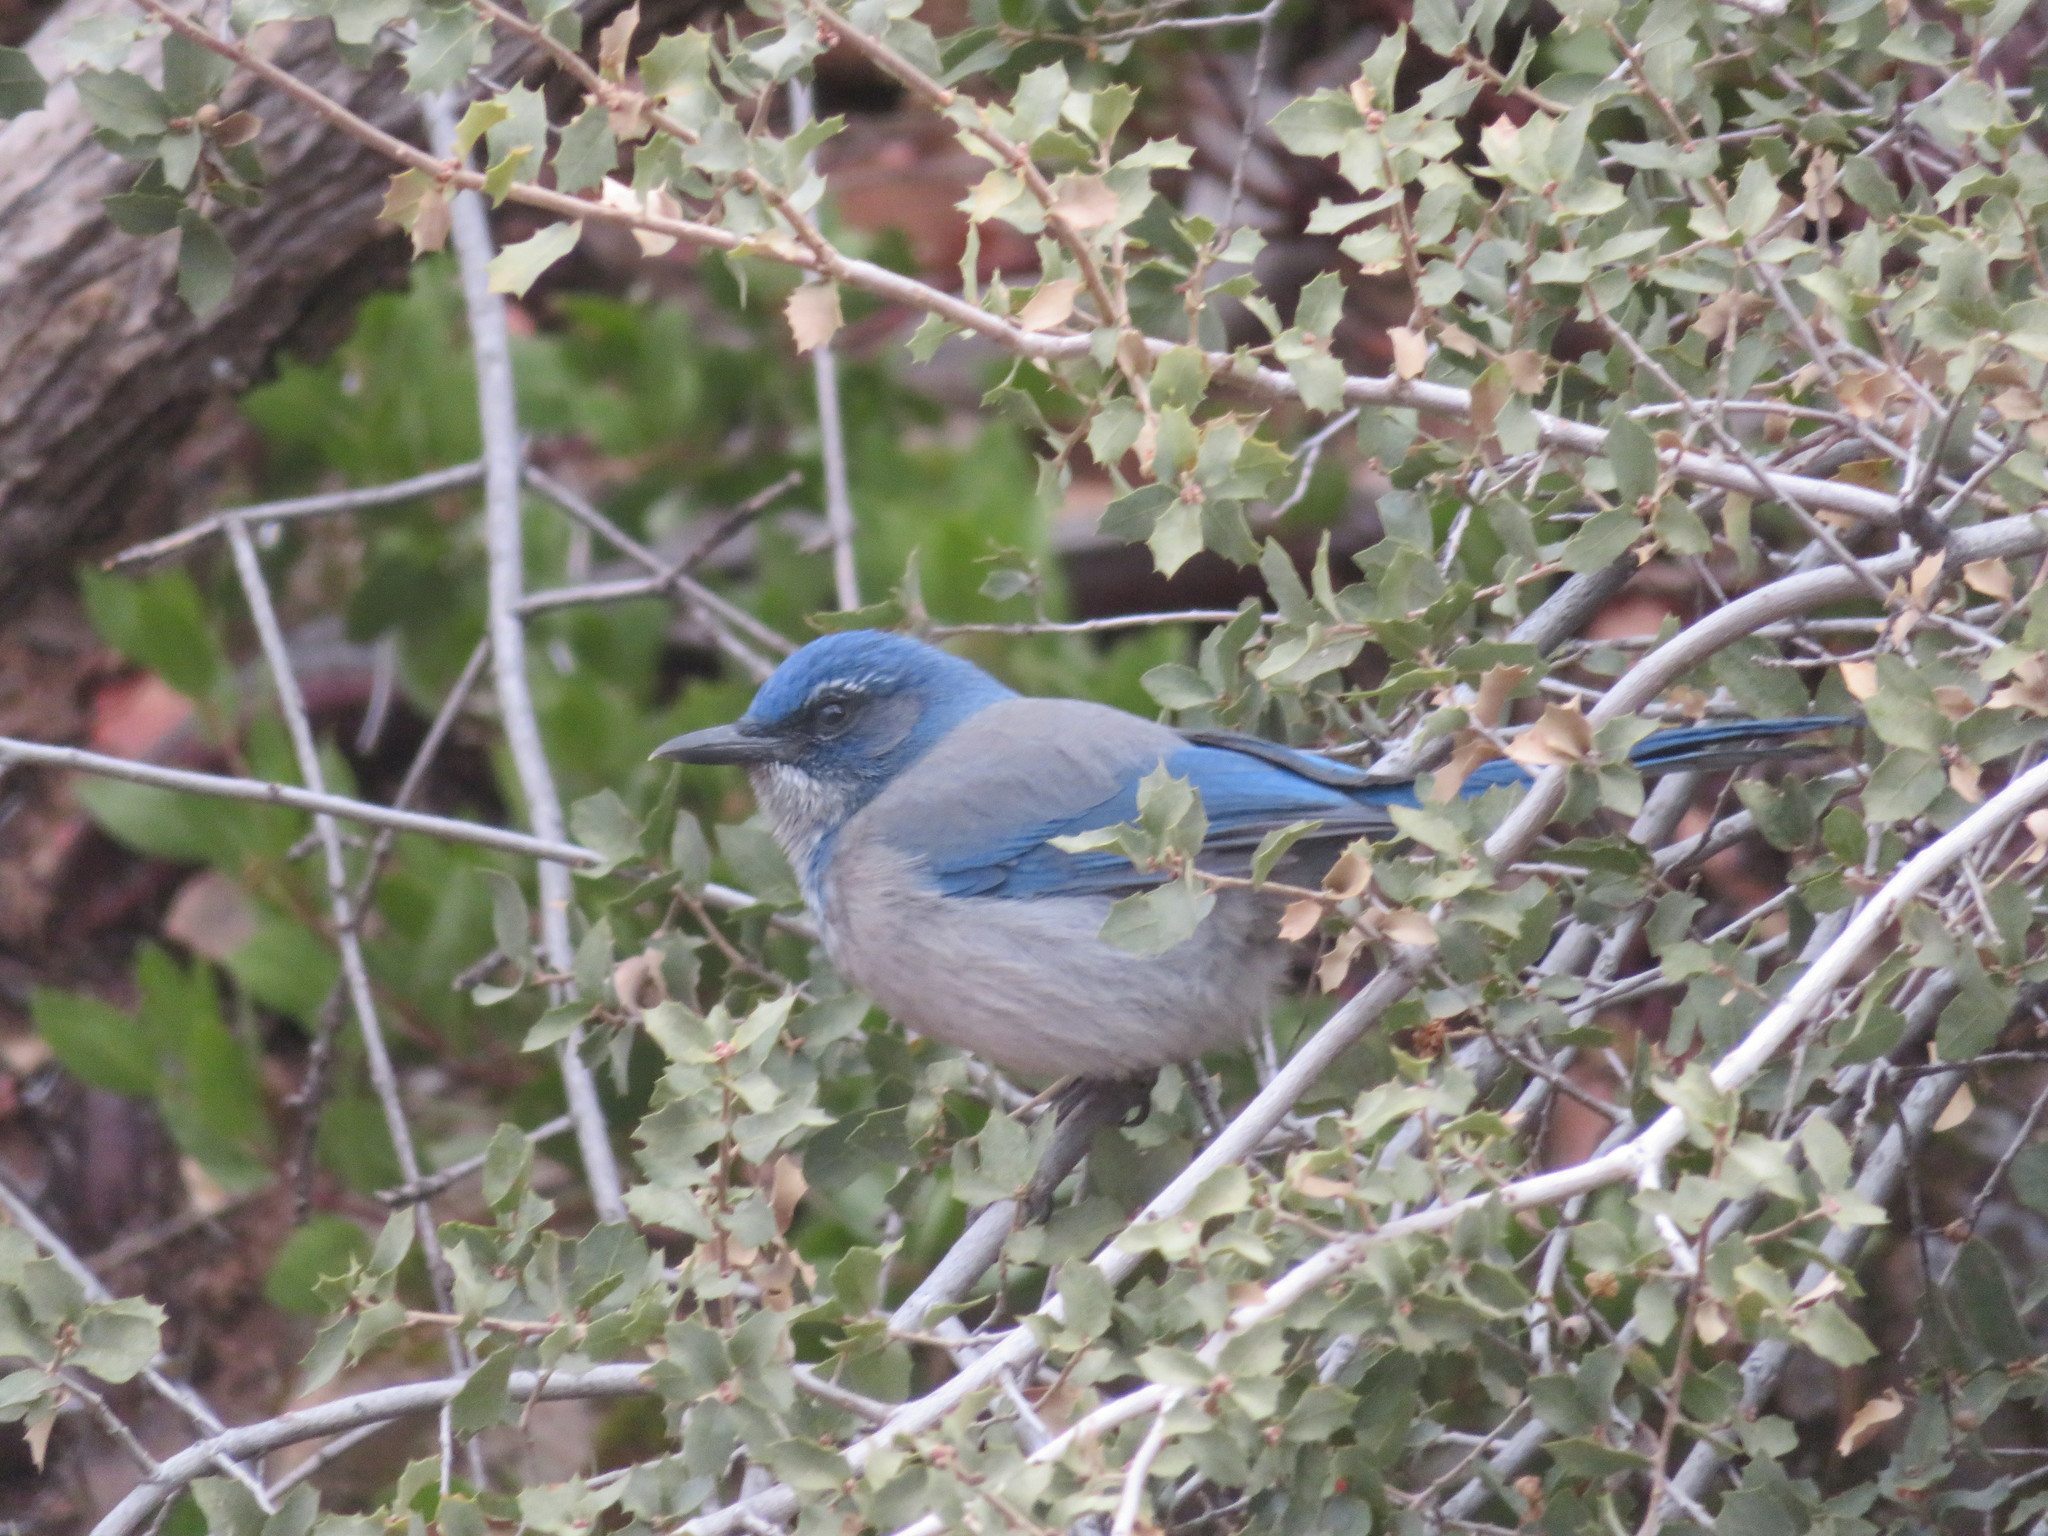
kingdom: Animalia
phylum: Chordata
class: Aves
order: Passeriformes
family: Corvidae
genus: Aphelocoma
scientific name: Aphelocoma woodhouseii
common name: Woodhouse's scrub-jay
